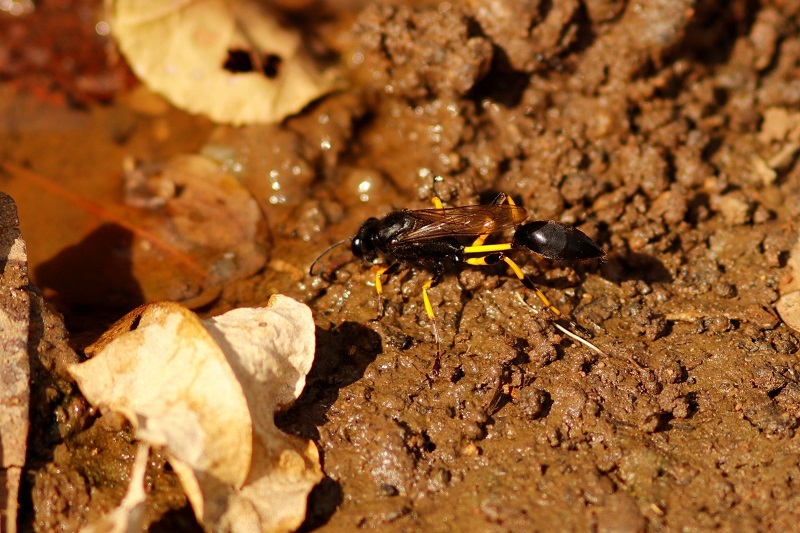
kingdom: Animalia
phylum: Arthropoda
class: Insecta
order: Hymenoptera
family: Sphecidae
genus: Sceliphron
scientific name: Sceliphron spirifex
